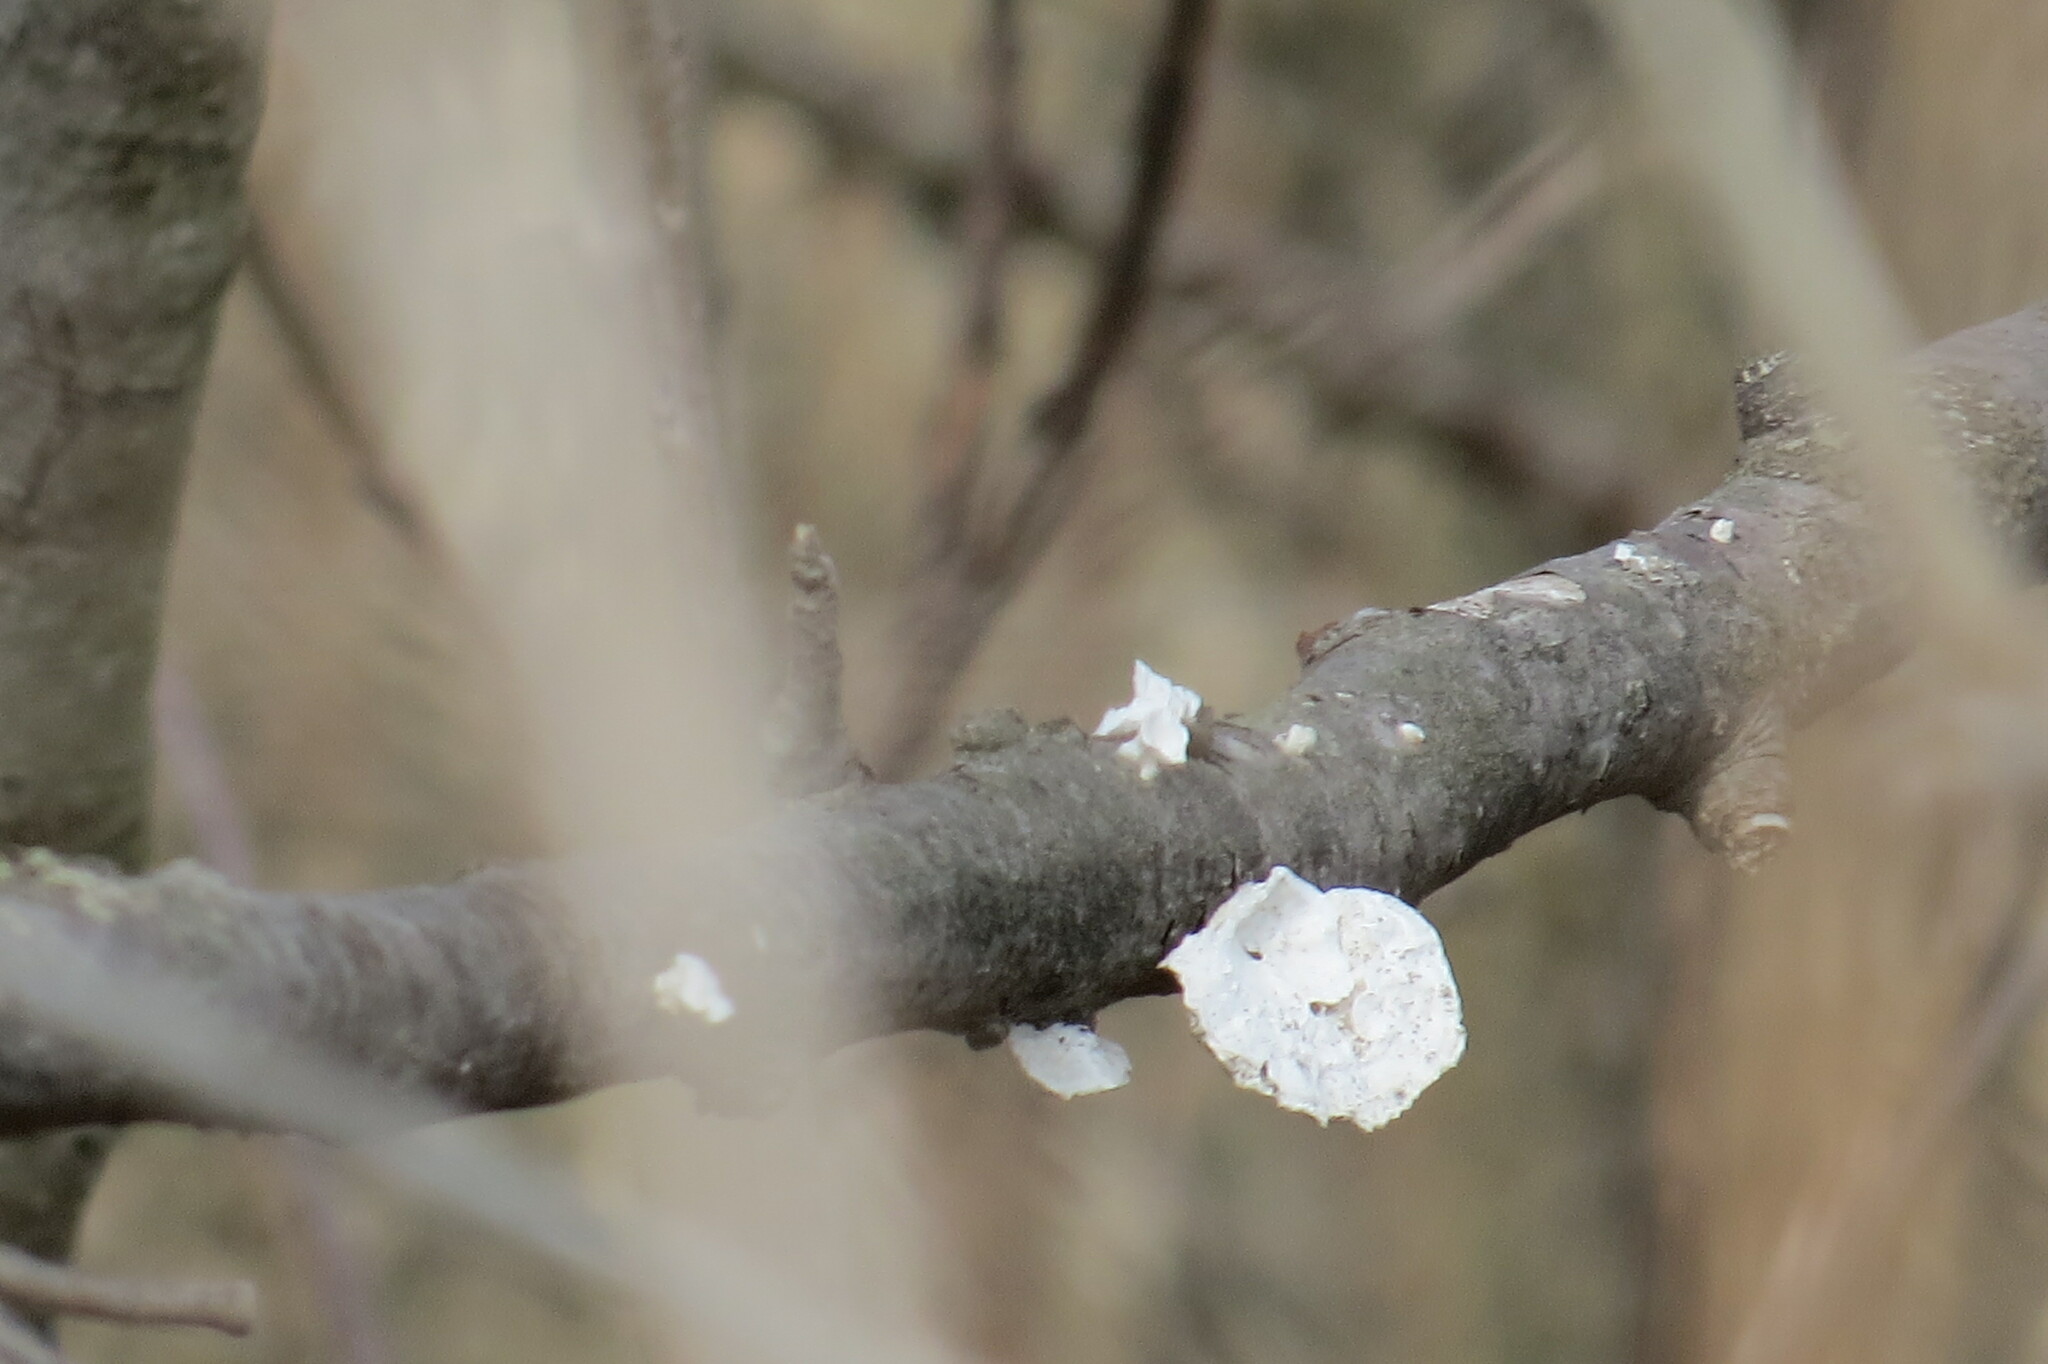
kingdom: Fungi
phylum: Basidiomycota
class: Agaricomycetes
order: Polyporales
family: Polyporaceae
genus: Poronidulus
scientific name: Poronidulus conchifer
